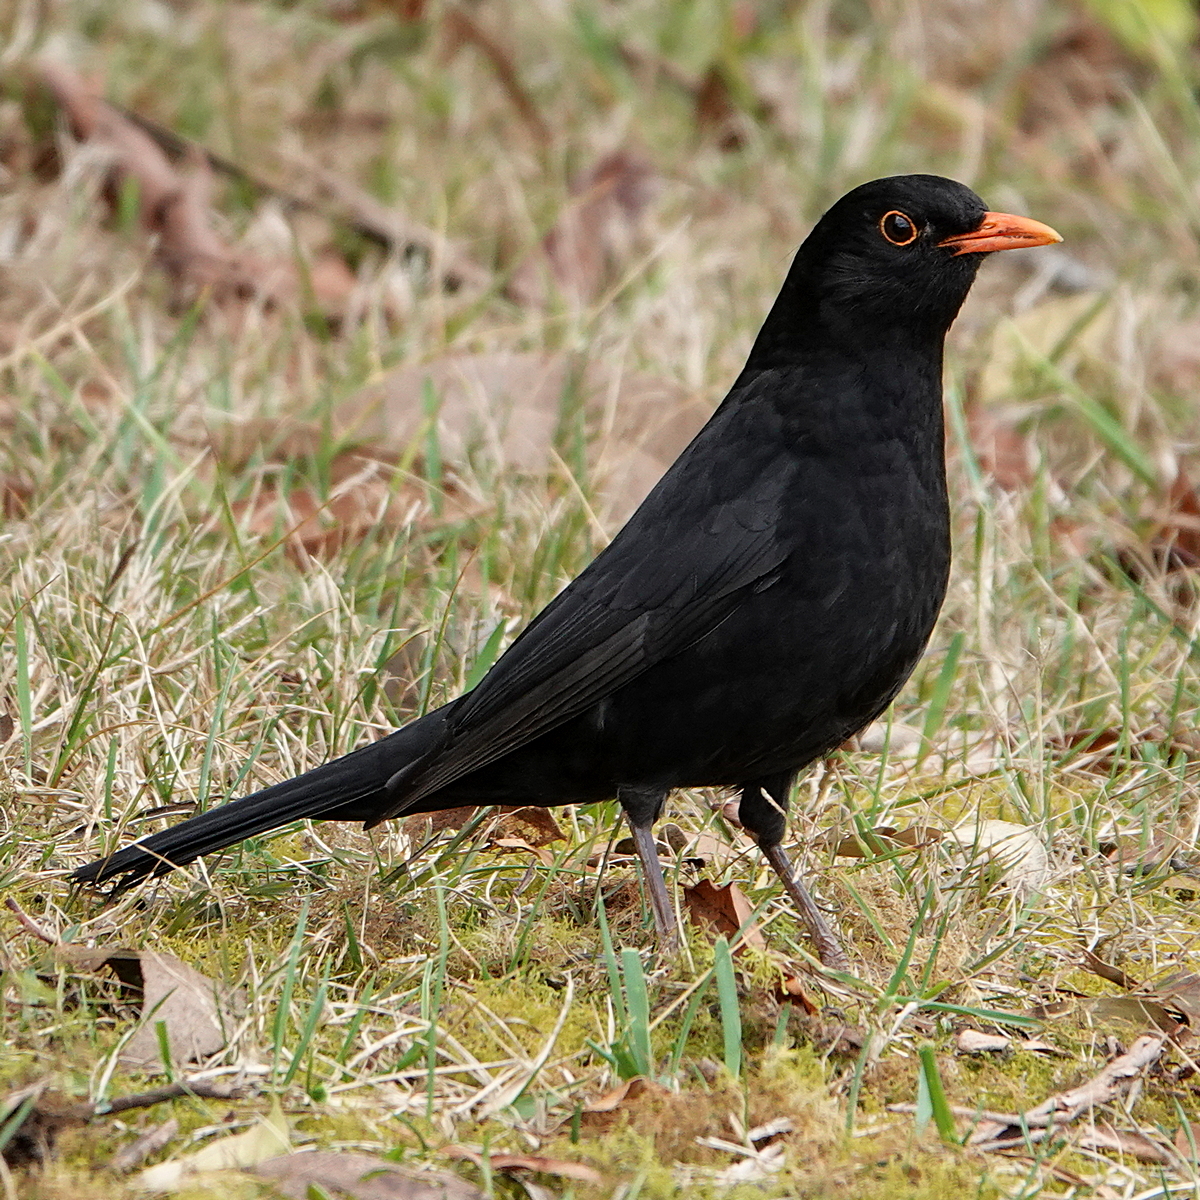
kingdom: Animalia
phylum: Chordata
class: Aves
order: Passeriformes
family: Turdidae
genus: Turdus
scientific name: Turdus merula
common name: Common blackbird
